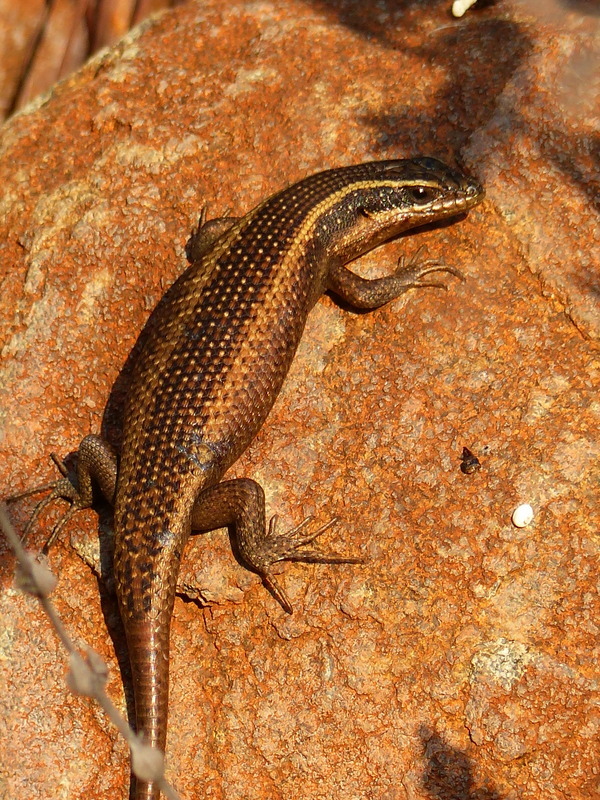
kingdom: Animalia
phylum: Chordata
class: Squamata
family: Scincidae
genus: Trachylepis
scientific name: Trachylepis punctatissima
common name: Montane speckled skink
